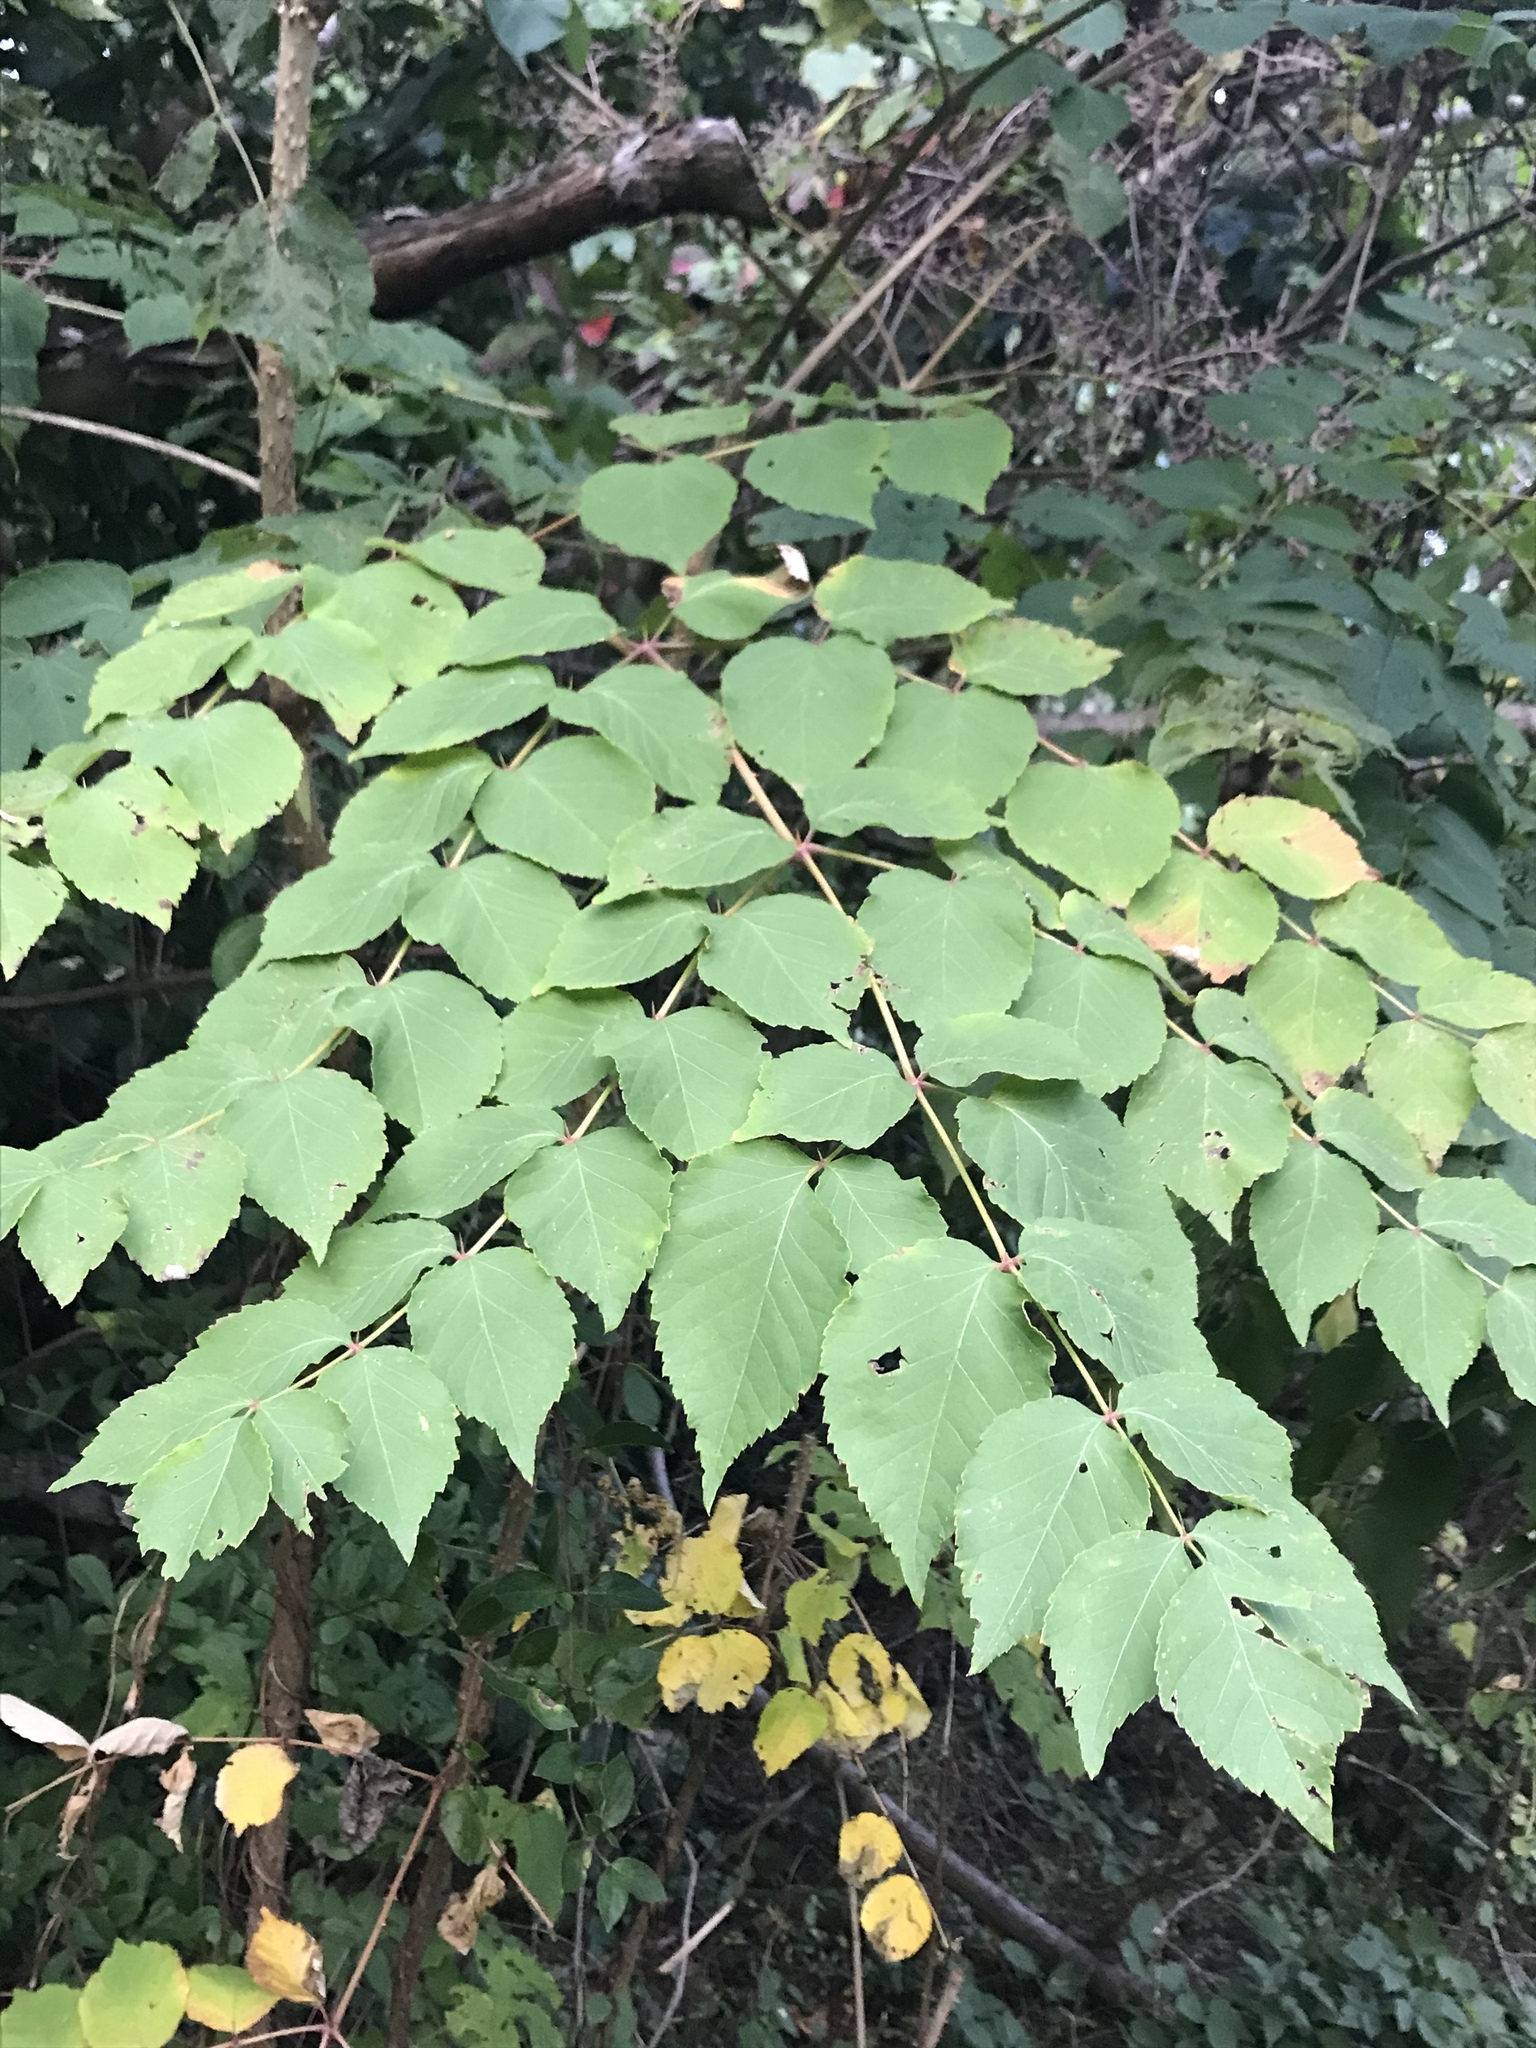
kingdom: Plantae
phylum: Tracheophyta
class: Magnoliopsida
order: Apiales
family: Araliaceae
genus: Aralia
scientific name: Aralia elata
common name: Japanese angelica-tree
